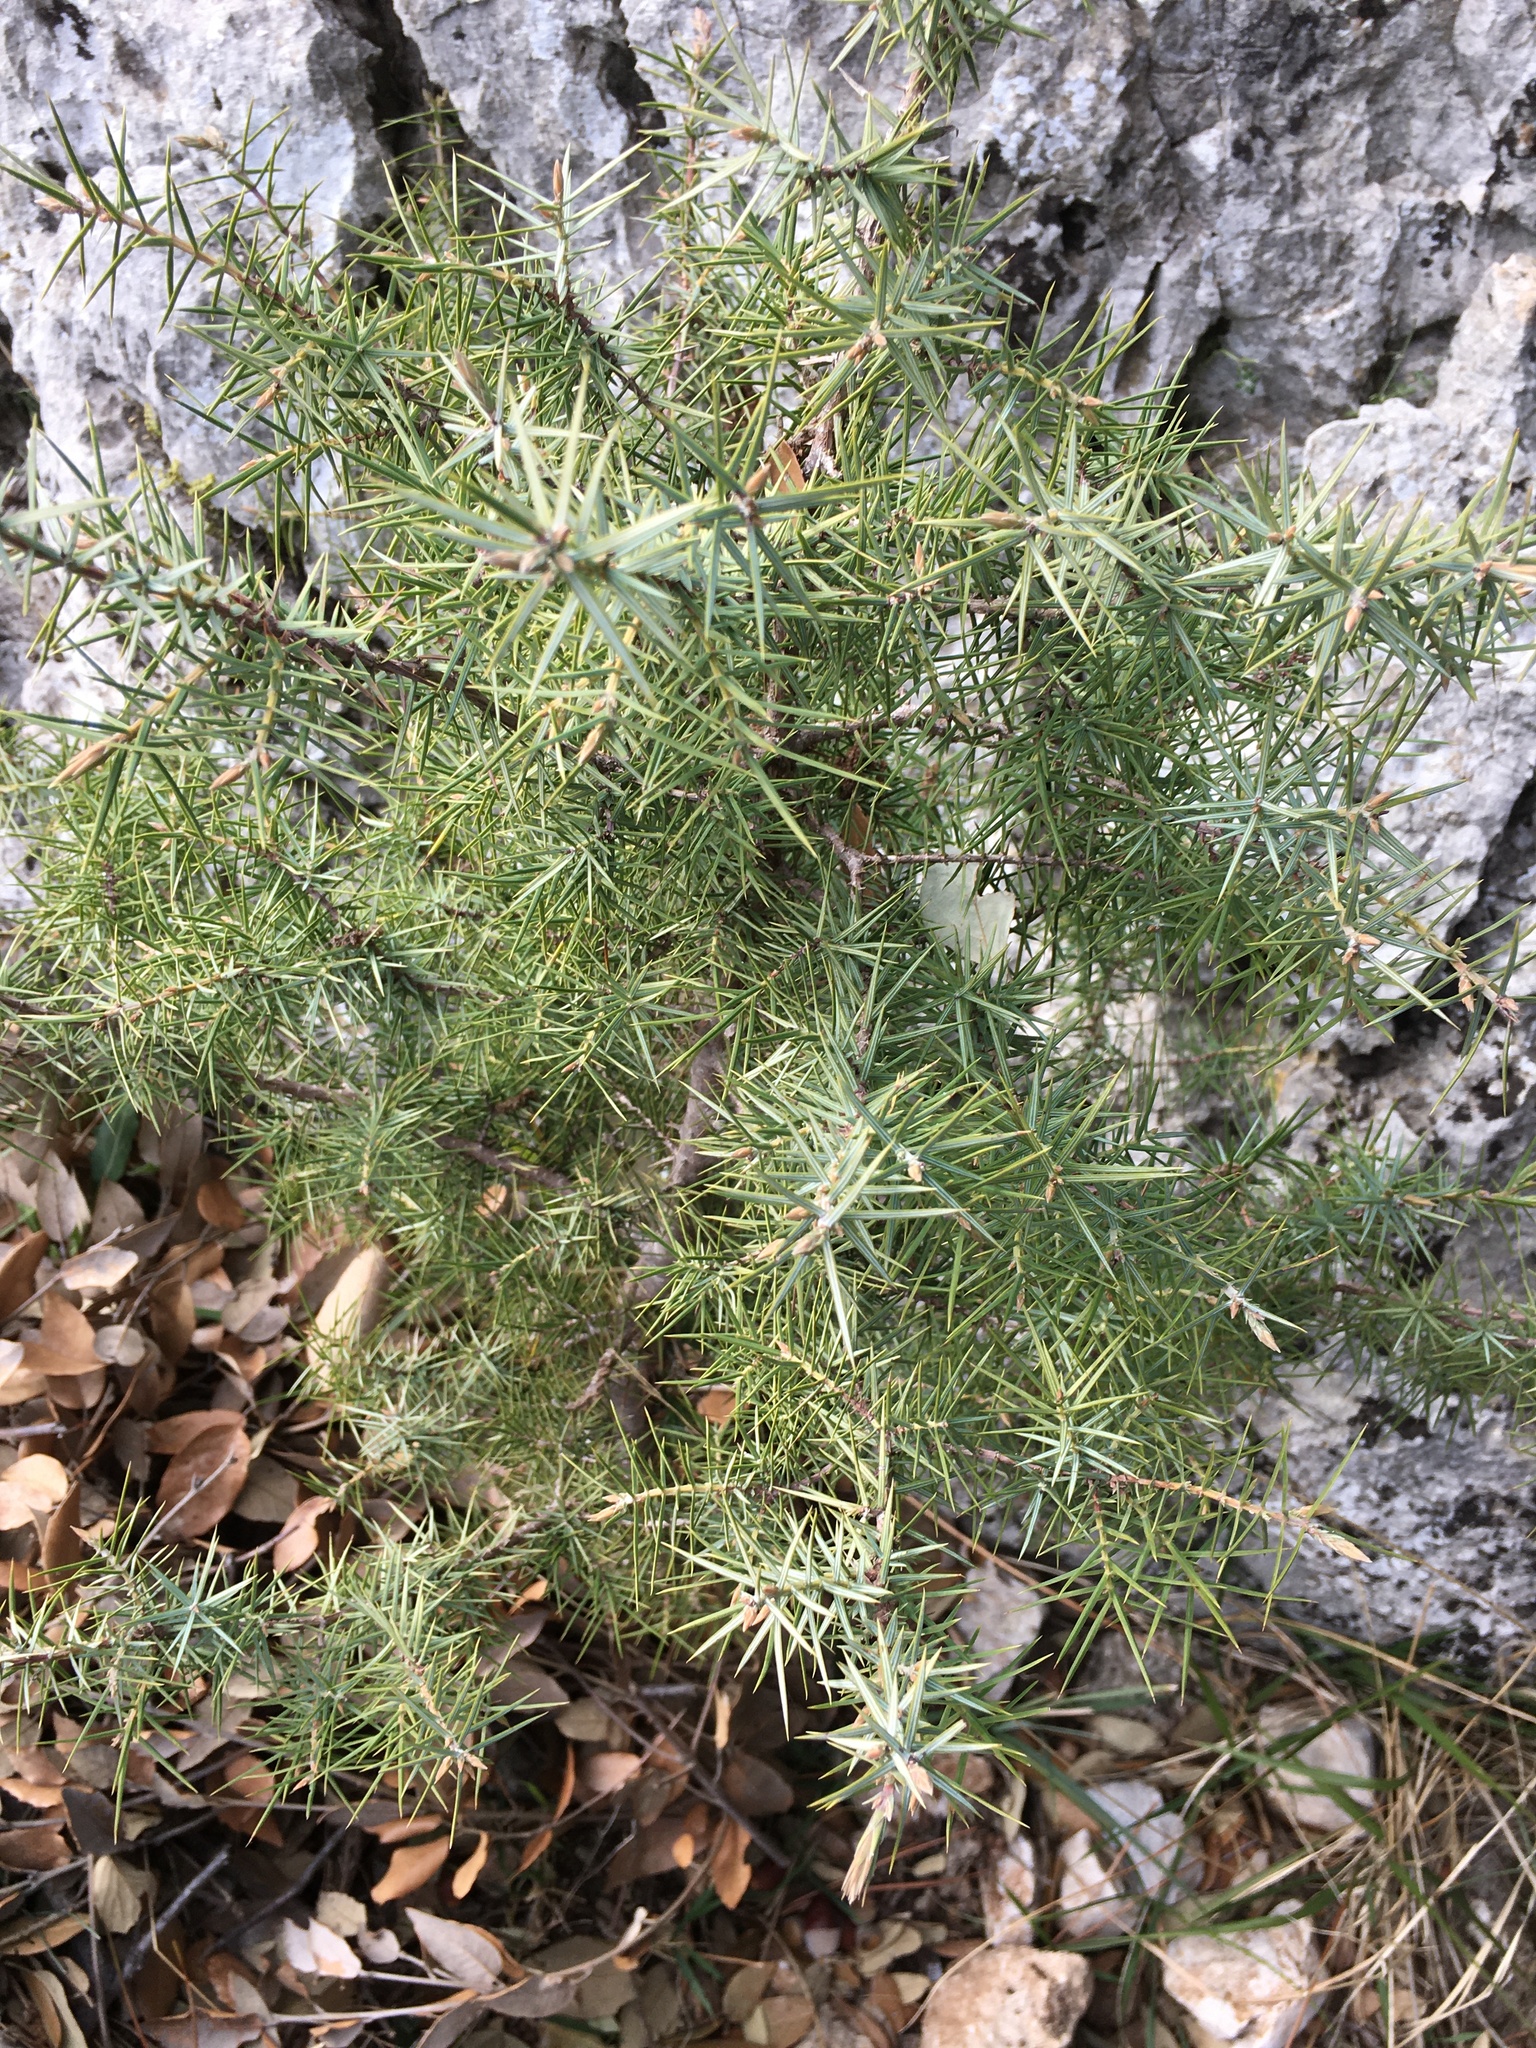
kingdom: Plantae
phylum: Tracheophyta
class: Pinopsida
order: Pinales
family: Cupressaceae
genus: Juniperus
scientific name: Juniperus communis
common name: Common juniper
